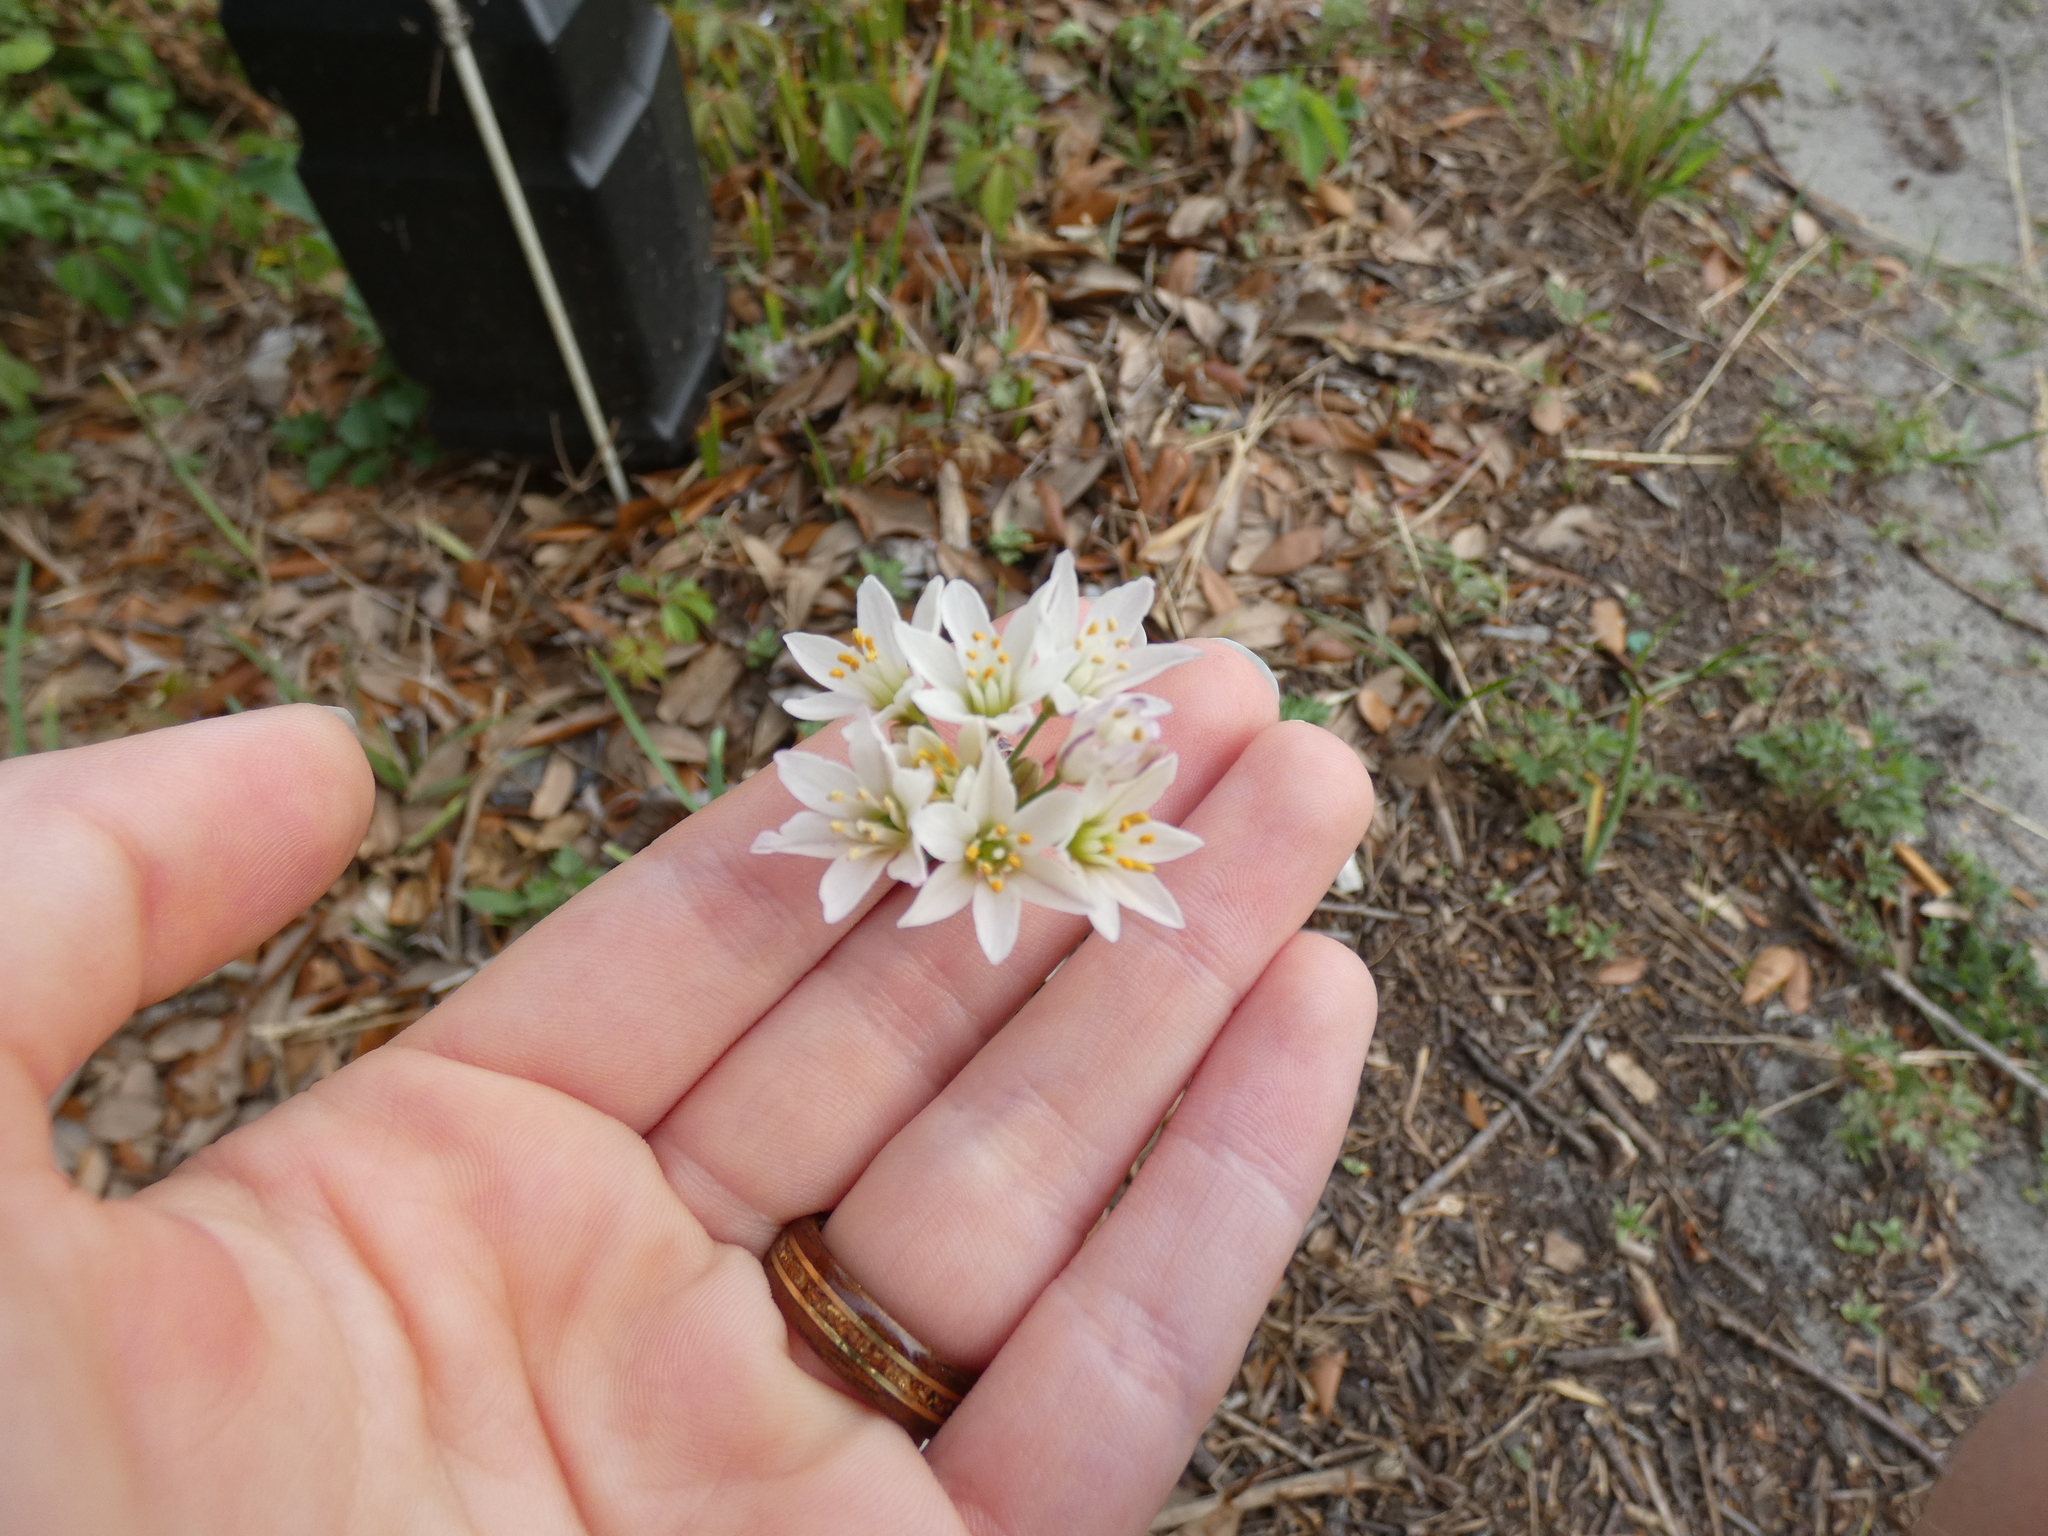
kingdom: Plantae
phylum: Tracheophyta
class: Liliopsida
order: Asparagales
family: Amaryllidaceae
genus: Nothoscordum
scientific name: Nothoscordum bivalve
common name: Crow-poison
